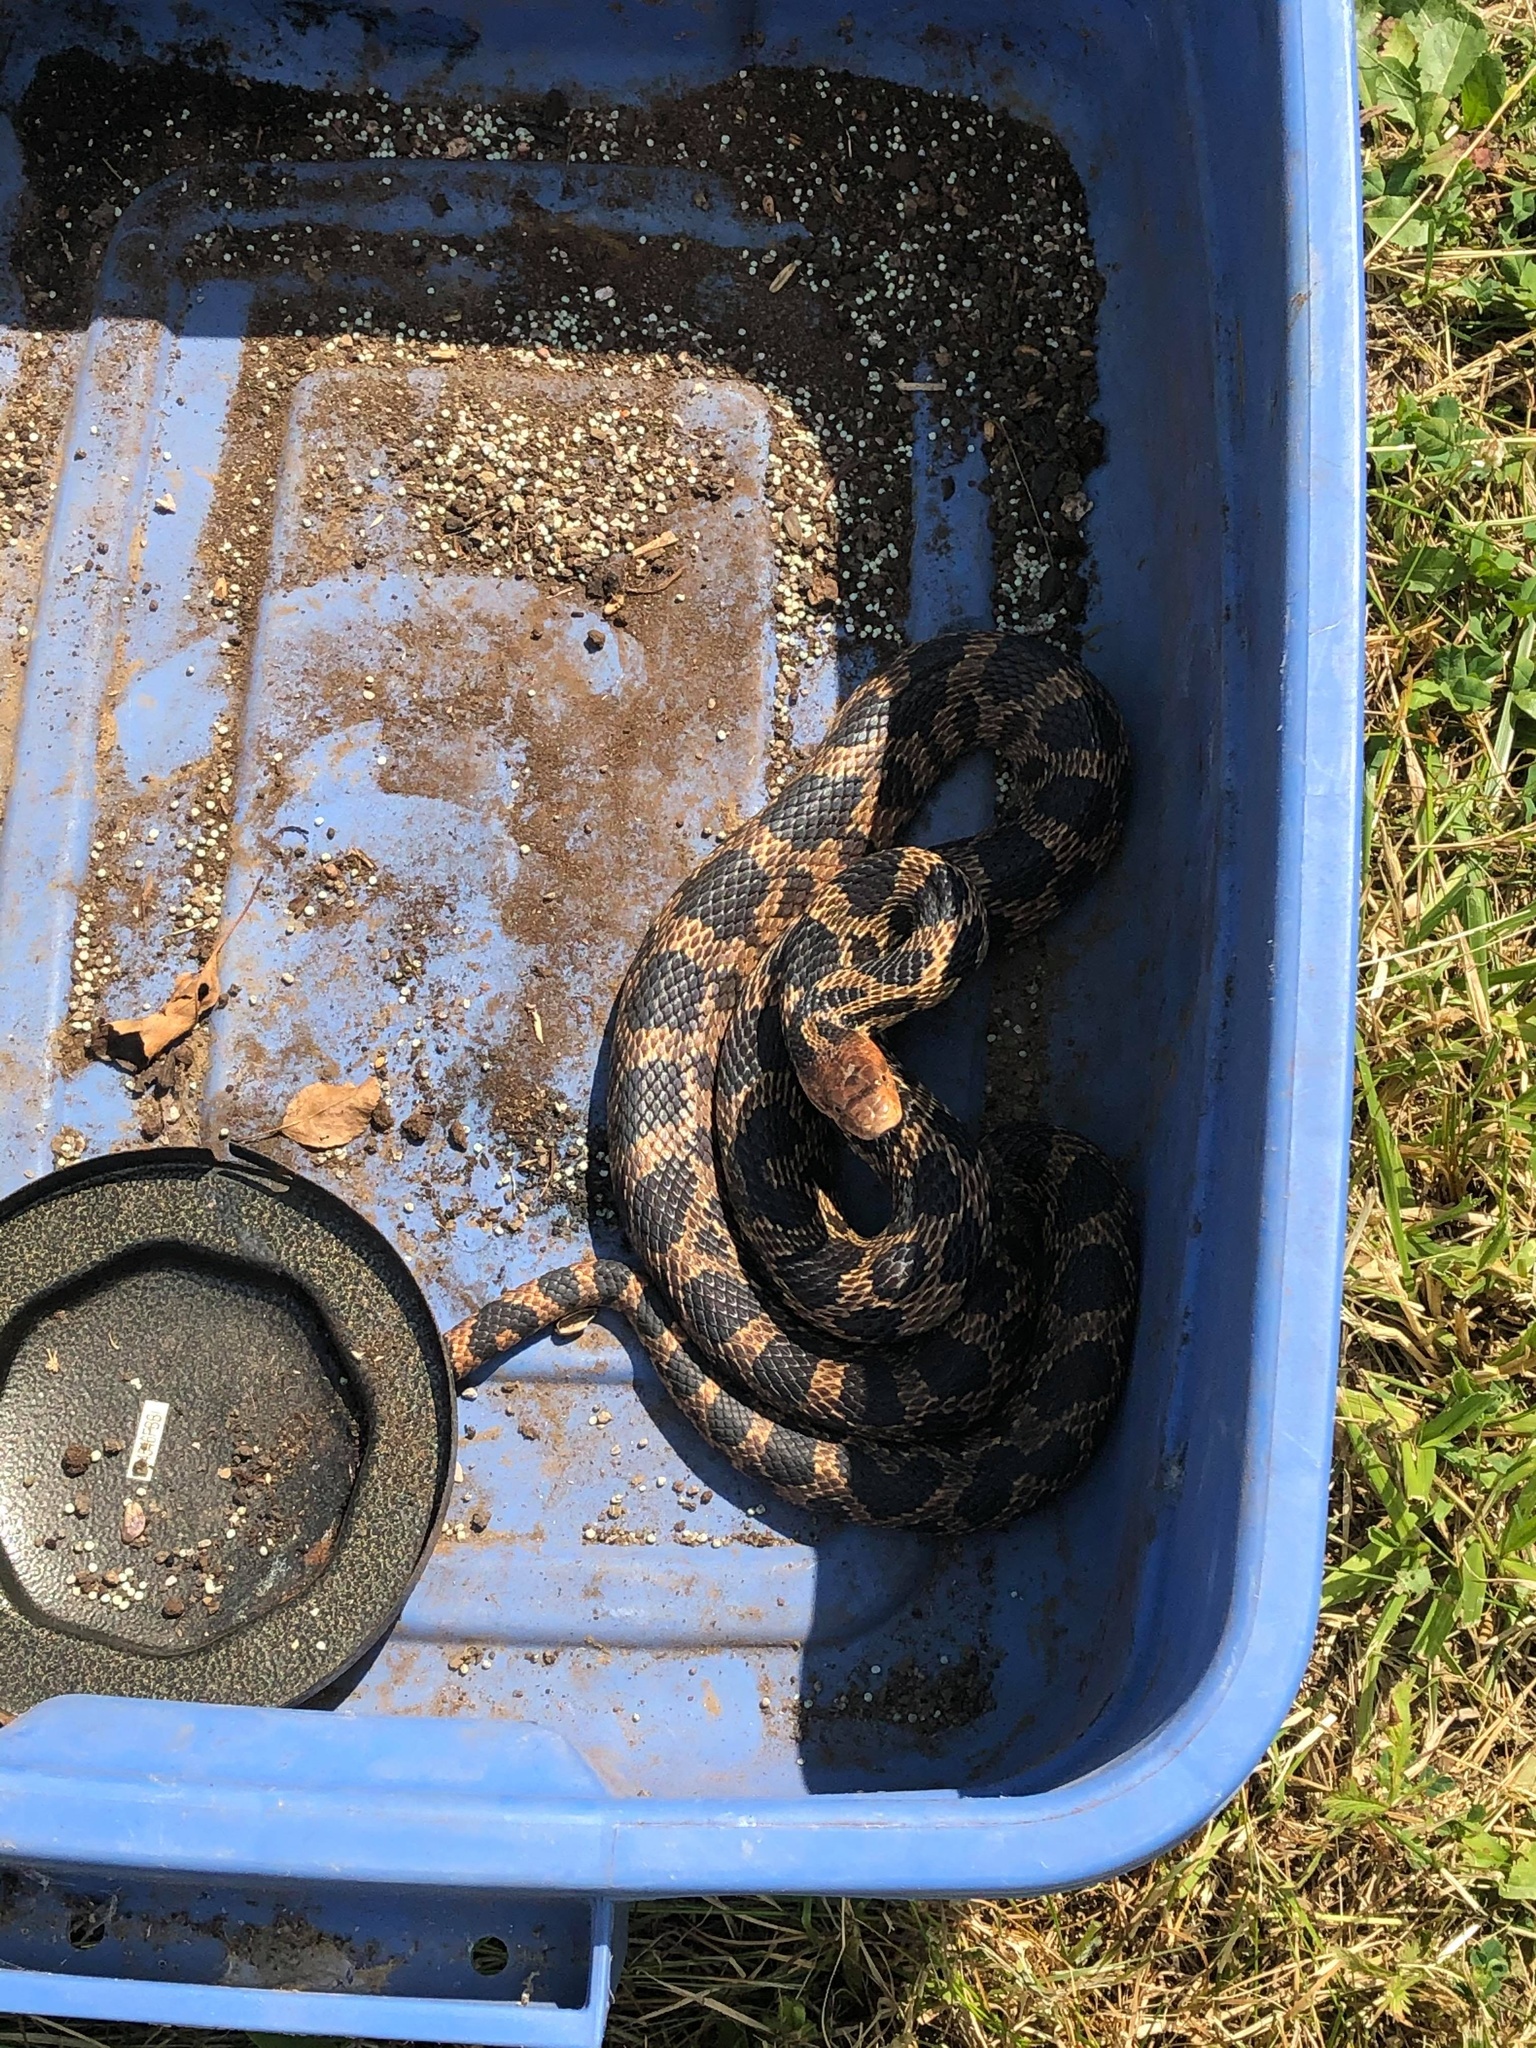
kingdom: Animalia
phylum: Chordata
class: Squamata
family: Colubridae
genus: Pantherophis
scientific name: Pantherophis vulpinus
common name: Eastern fox snake
